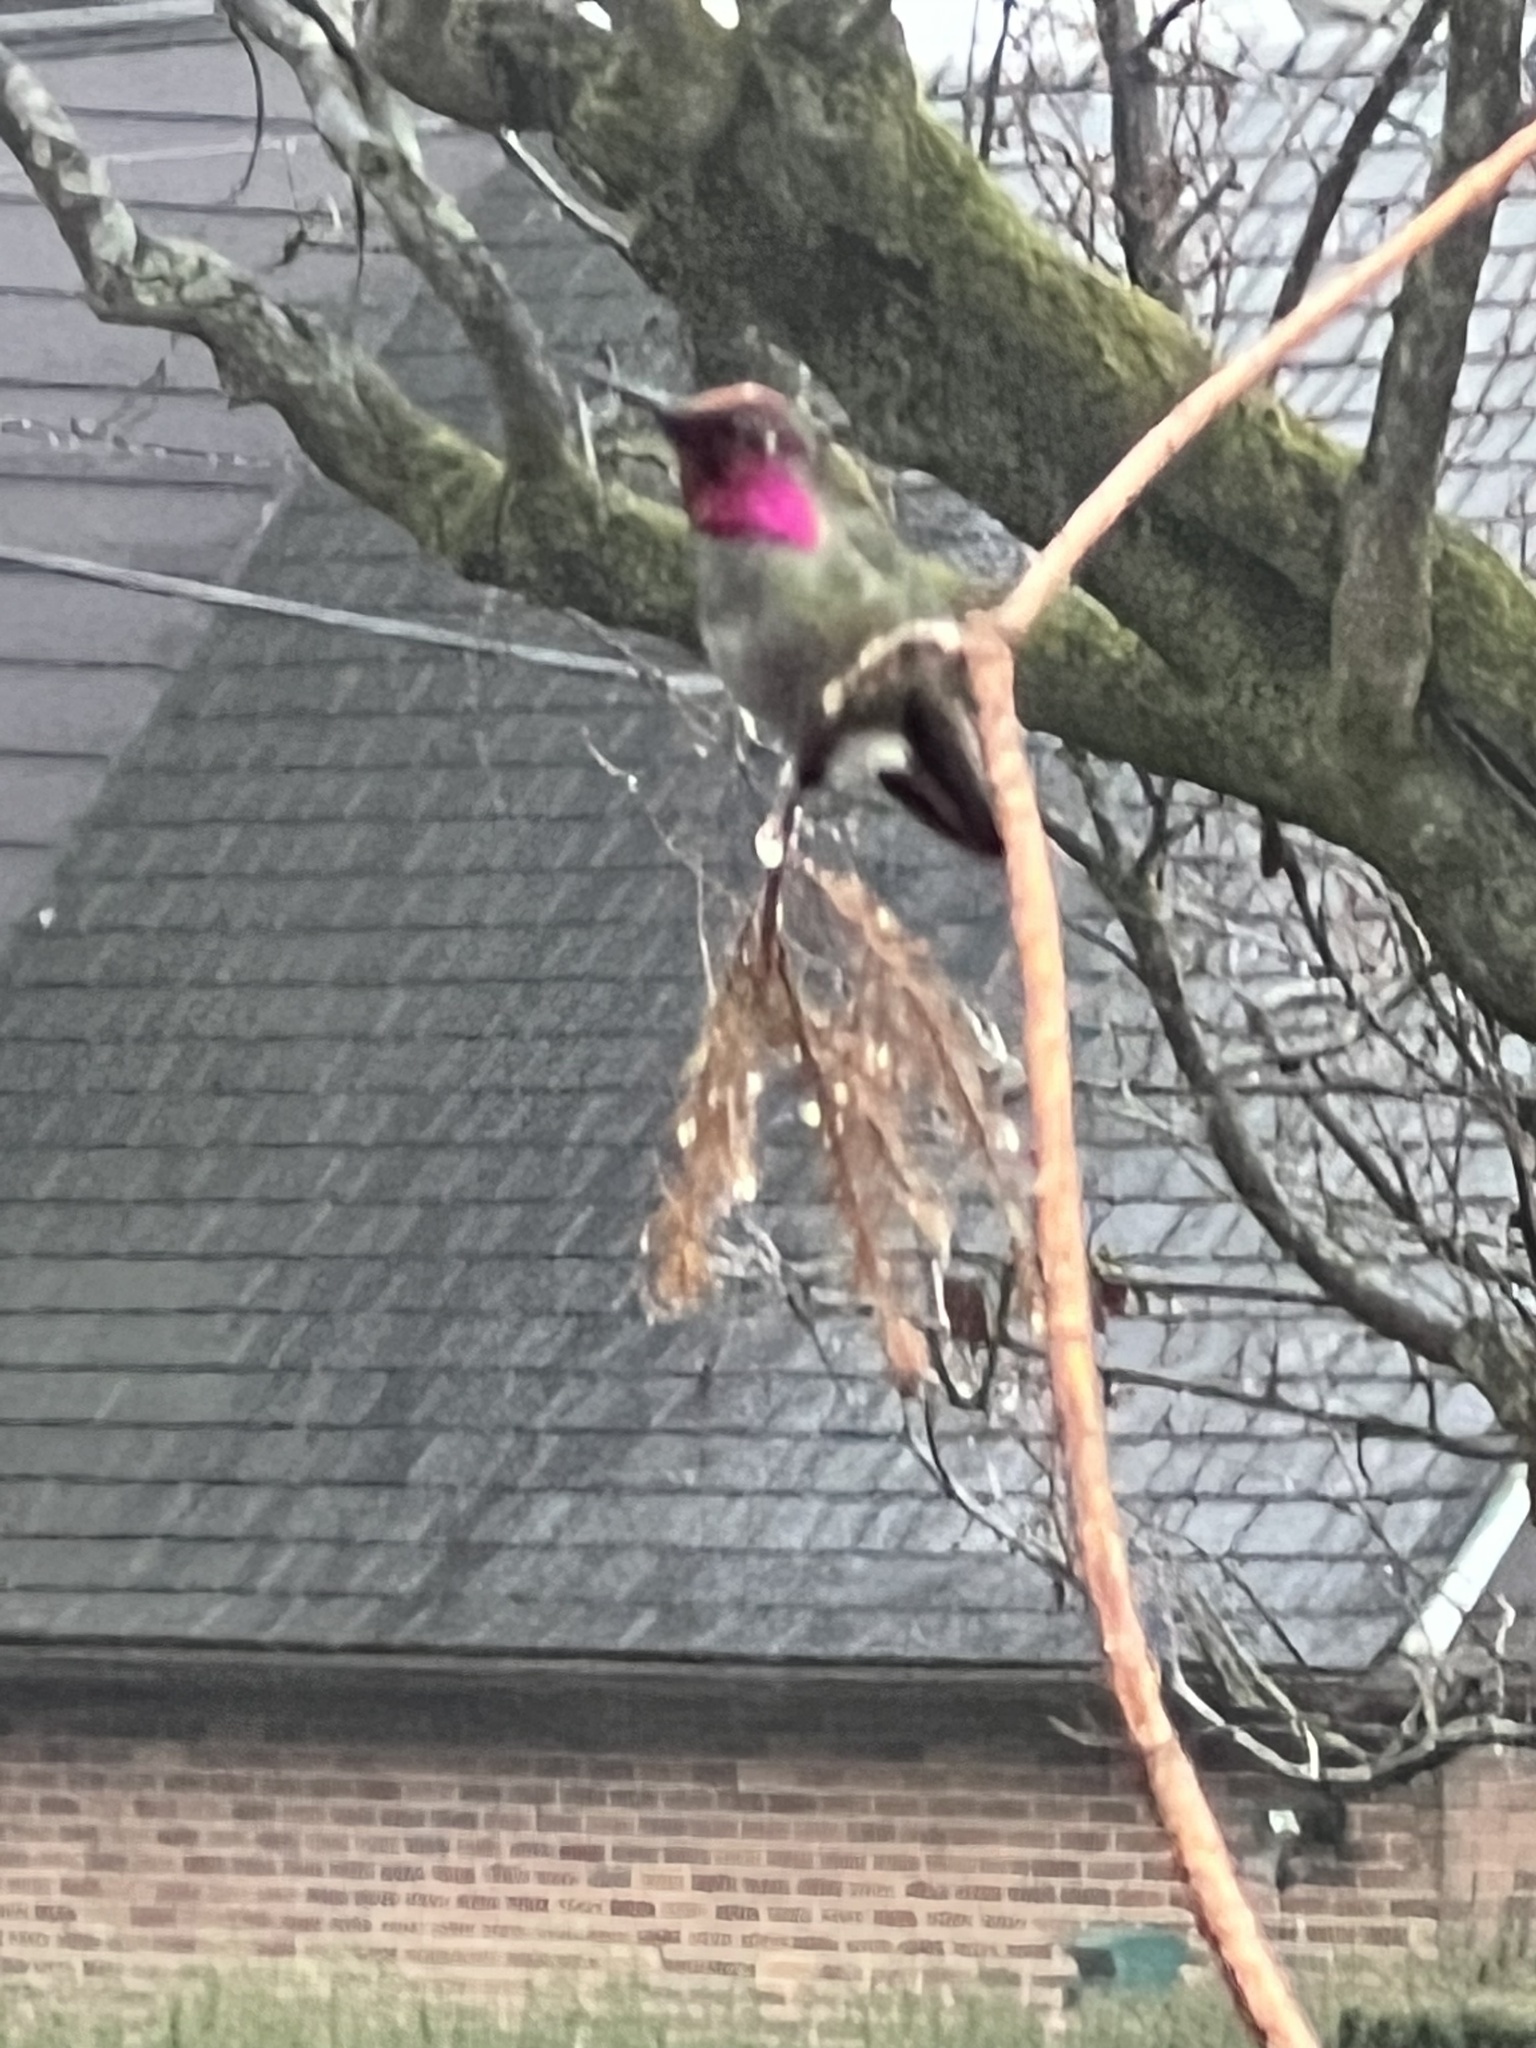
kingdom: Animalia
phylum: Chordata
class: Aves
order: Apodiformes
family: Trochilidae
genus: Calypte
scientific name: Calypte anna
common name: Anna's hummingbird
